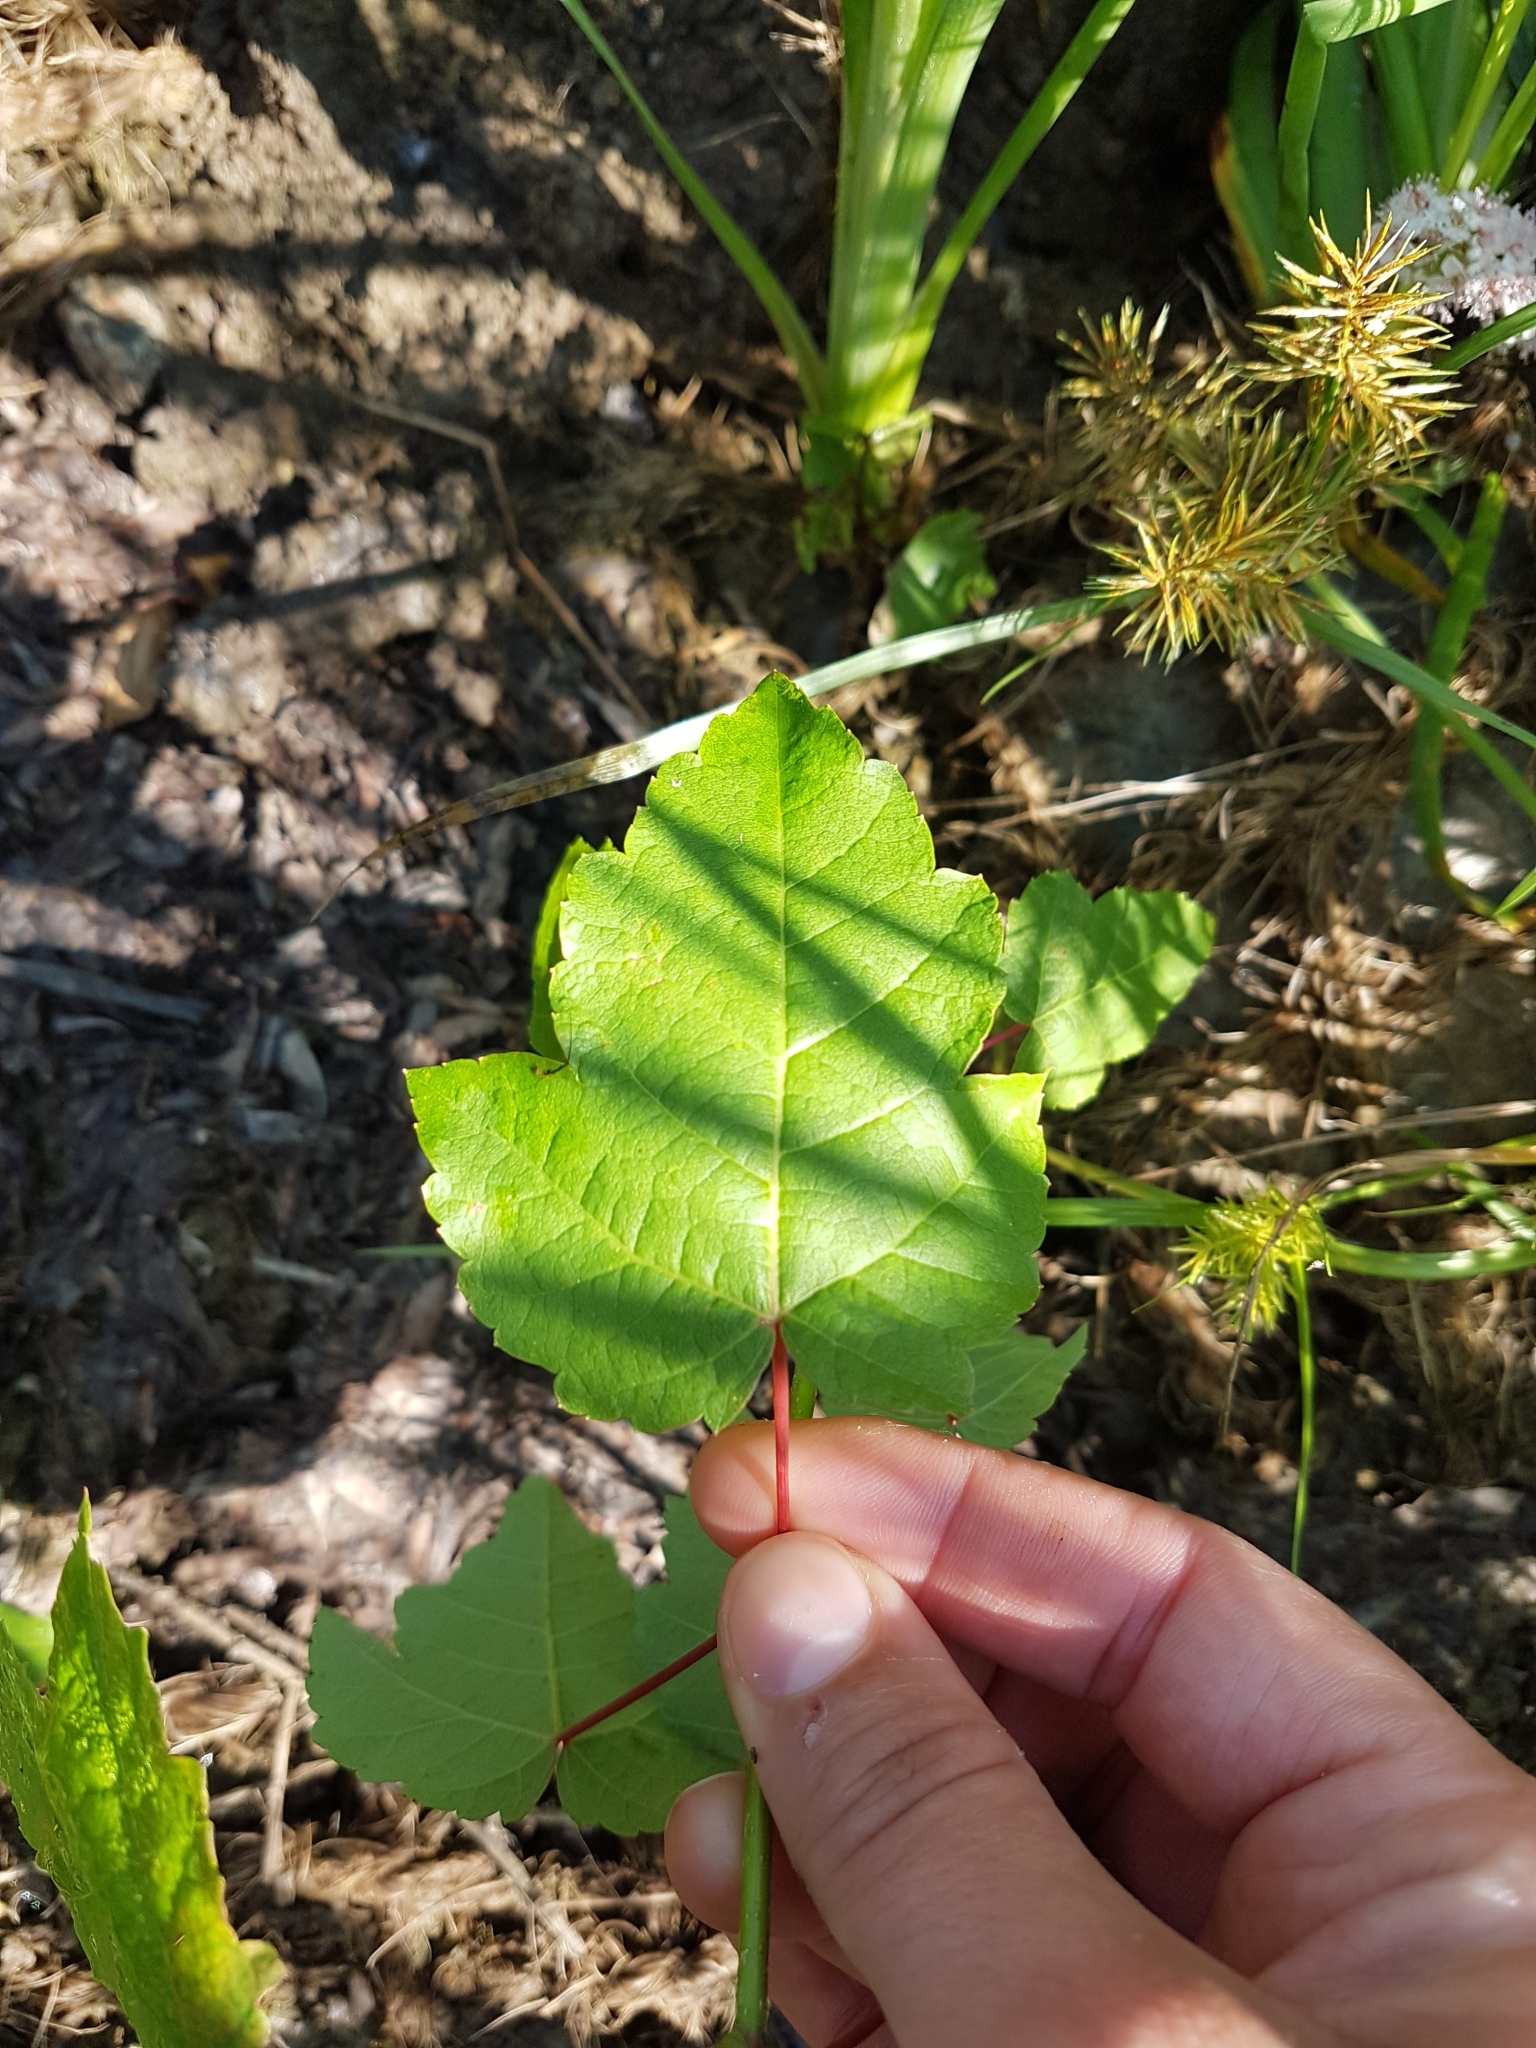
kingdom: Plantae
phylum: Tracheophyta
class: Magnoliopsida
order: Sapindales
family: Sapindaceae
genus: Acer
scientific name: Acer rubrum
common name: Red maple
